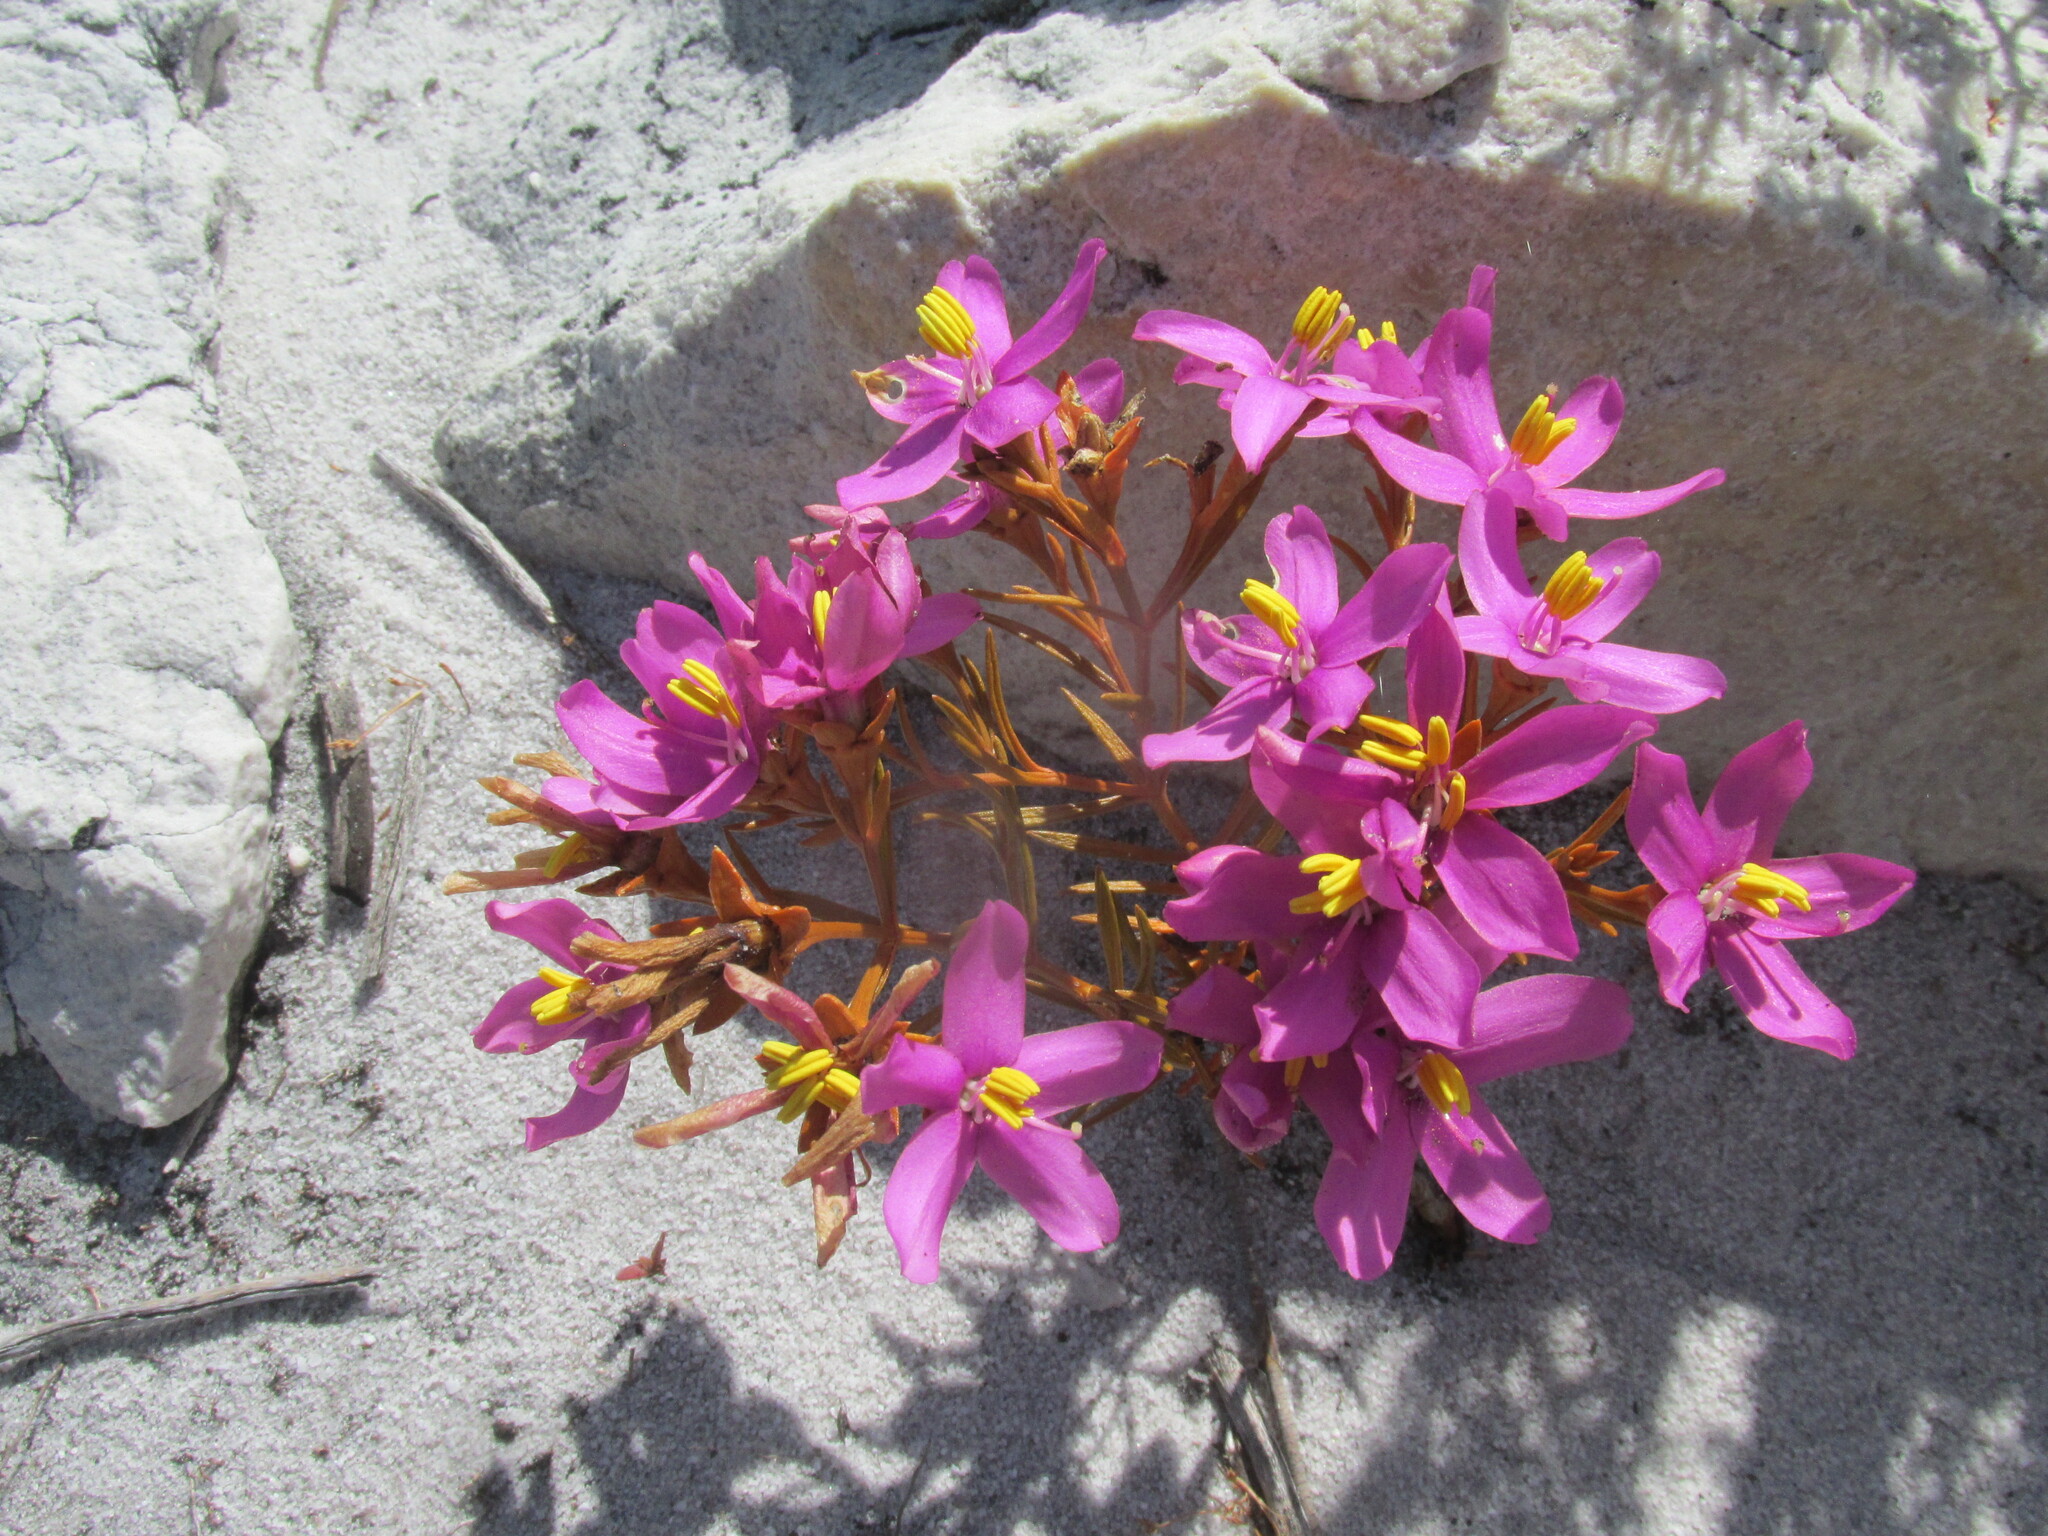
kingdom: Plantae
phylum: Tracheophyta
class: Magnoliopsida
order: Gentianales
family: Gentianaceae
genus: Chironia
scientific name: Chironia linoides
